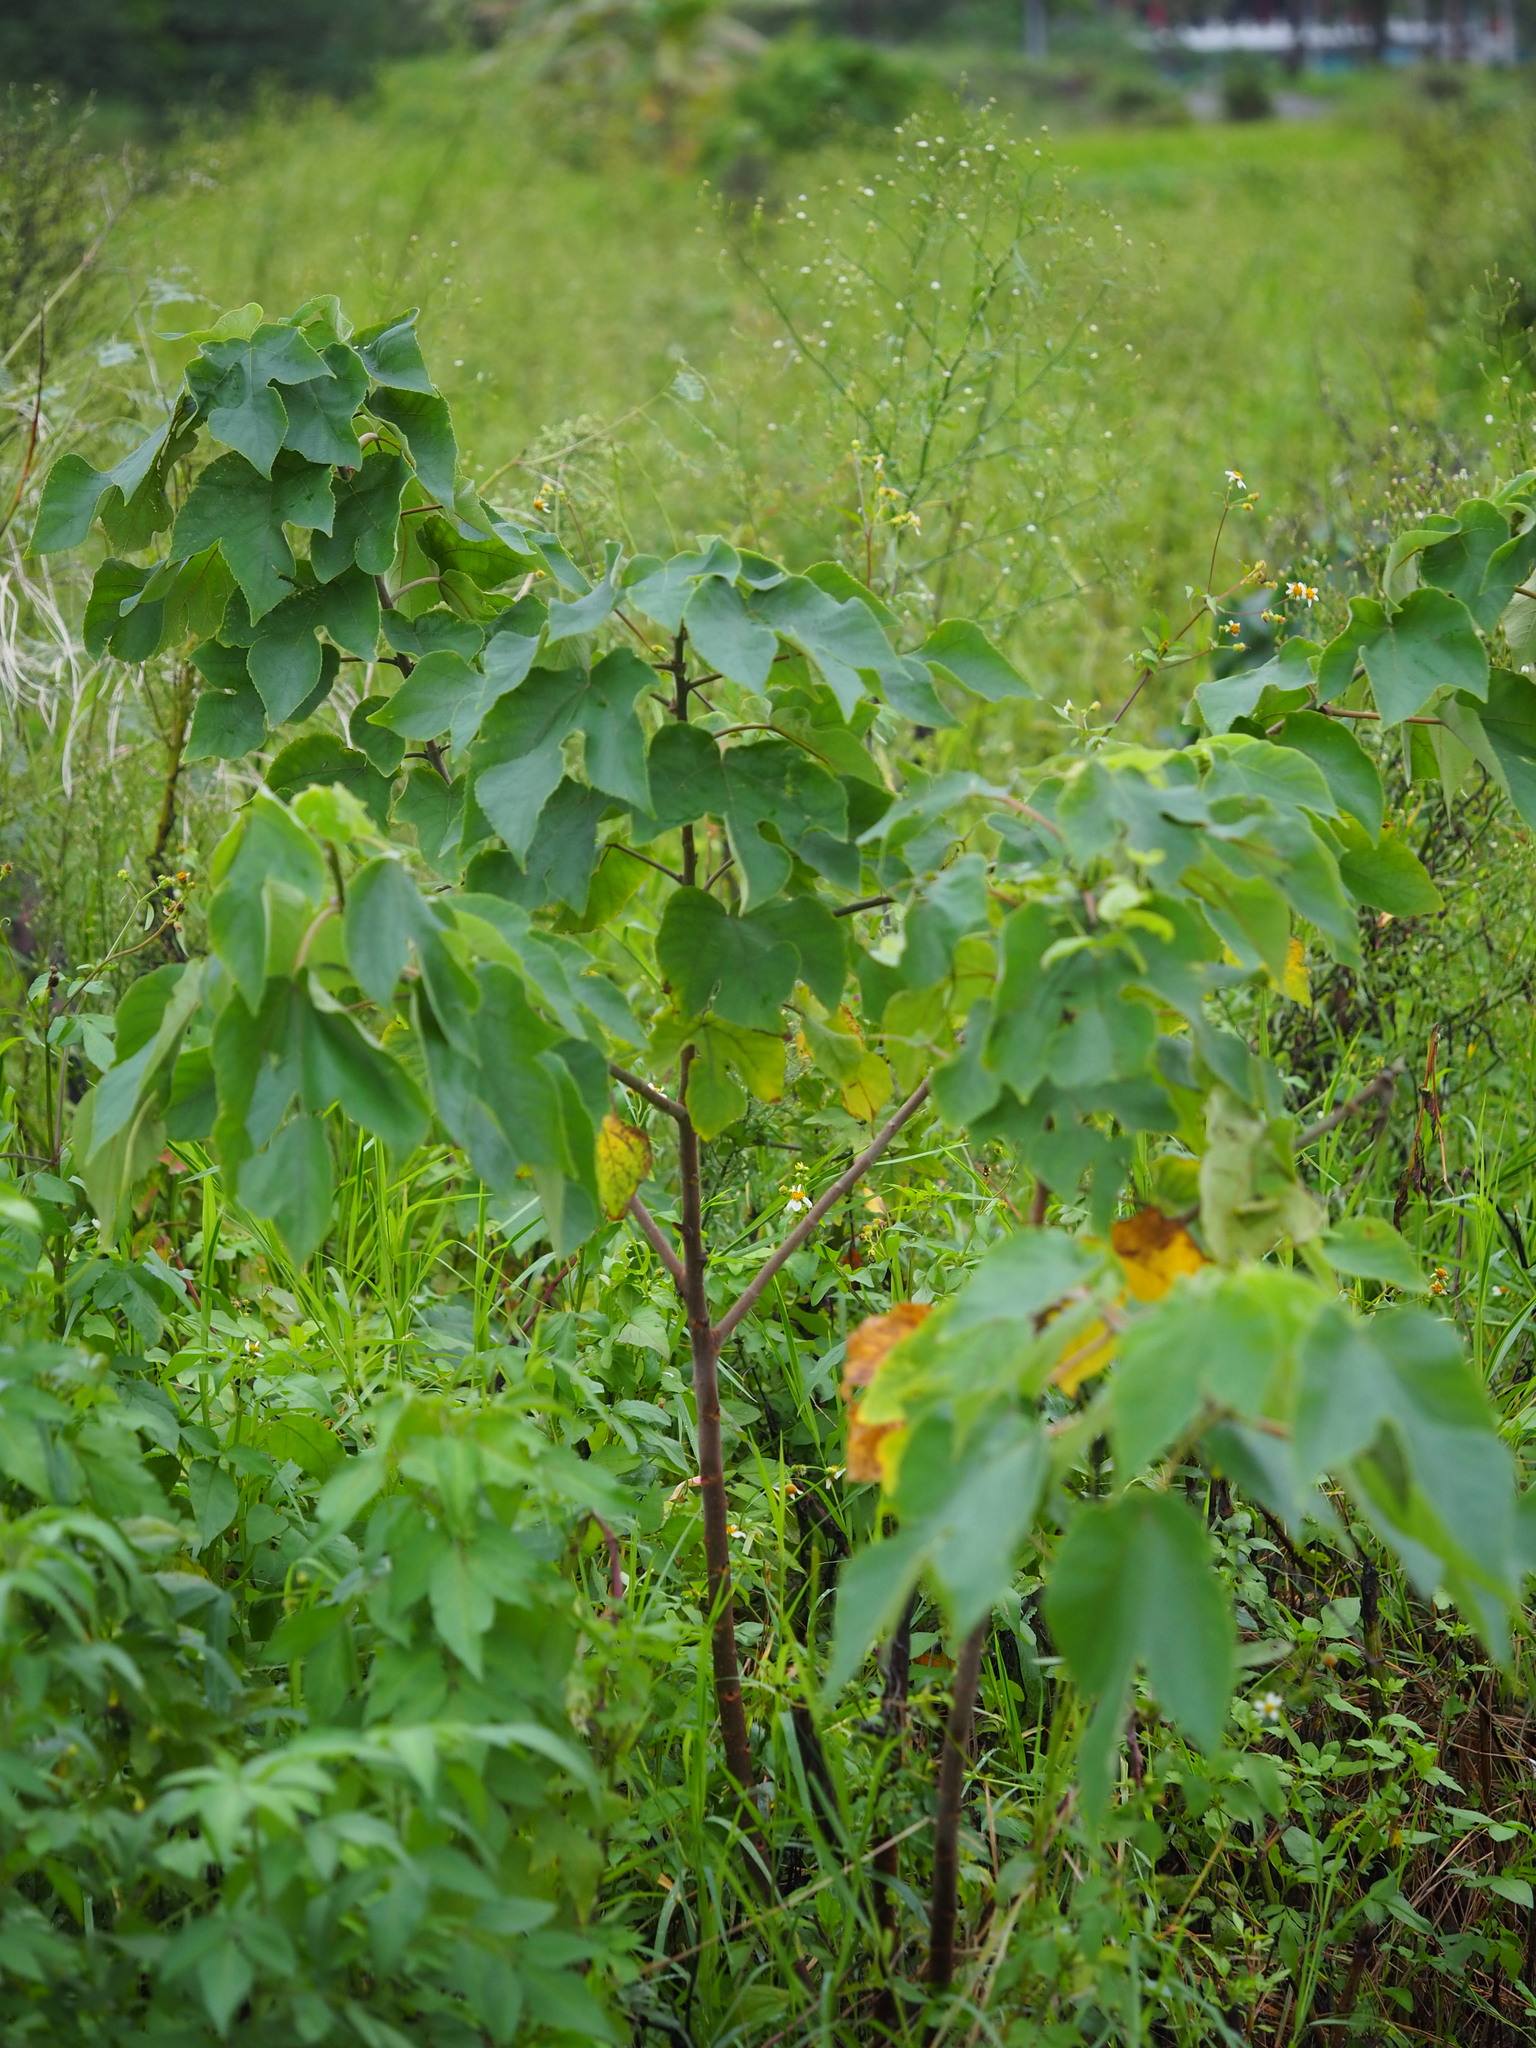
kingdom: Plantae
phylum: Tracheophyta
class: Magnoliopsida
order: Rosales
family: Moraceae
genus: Broussonetia
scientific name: Broussonetia papyrifera
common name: Paper mulberry
